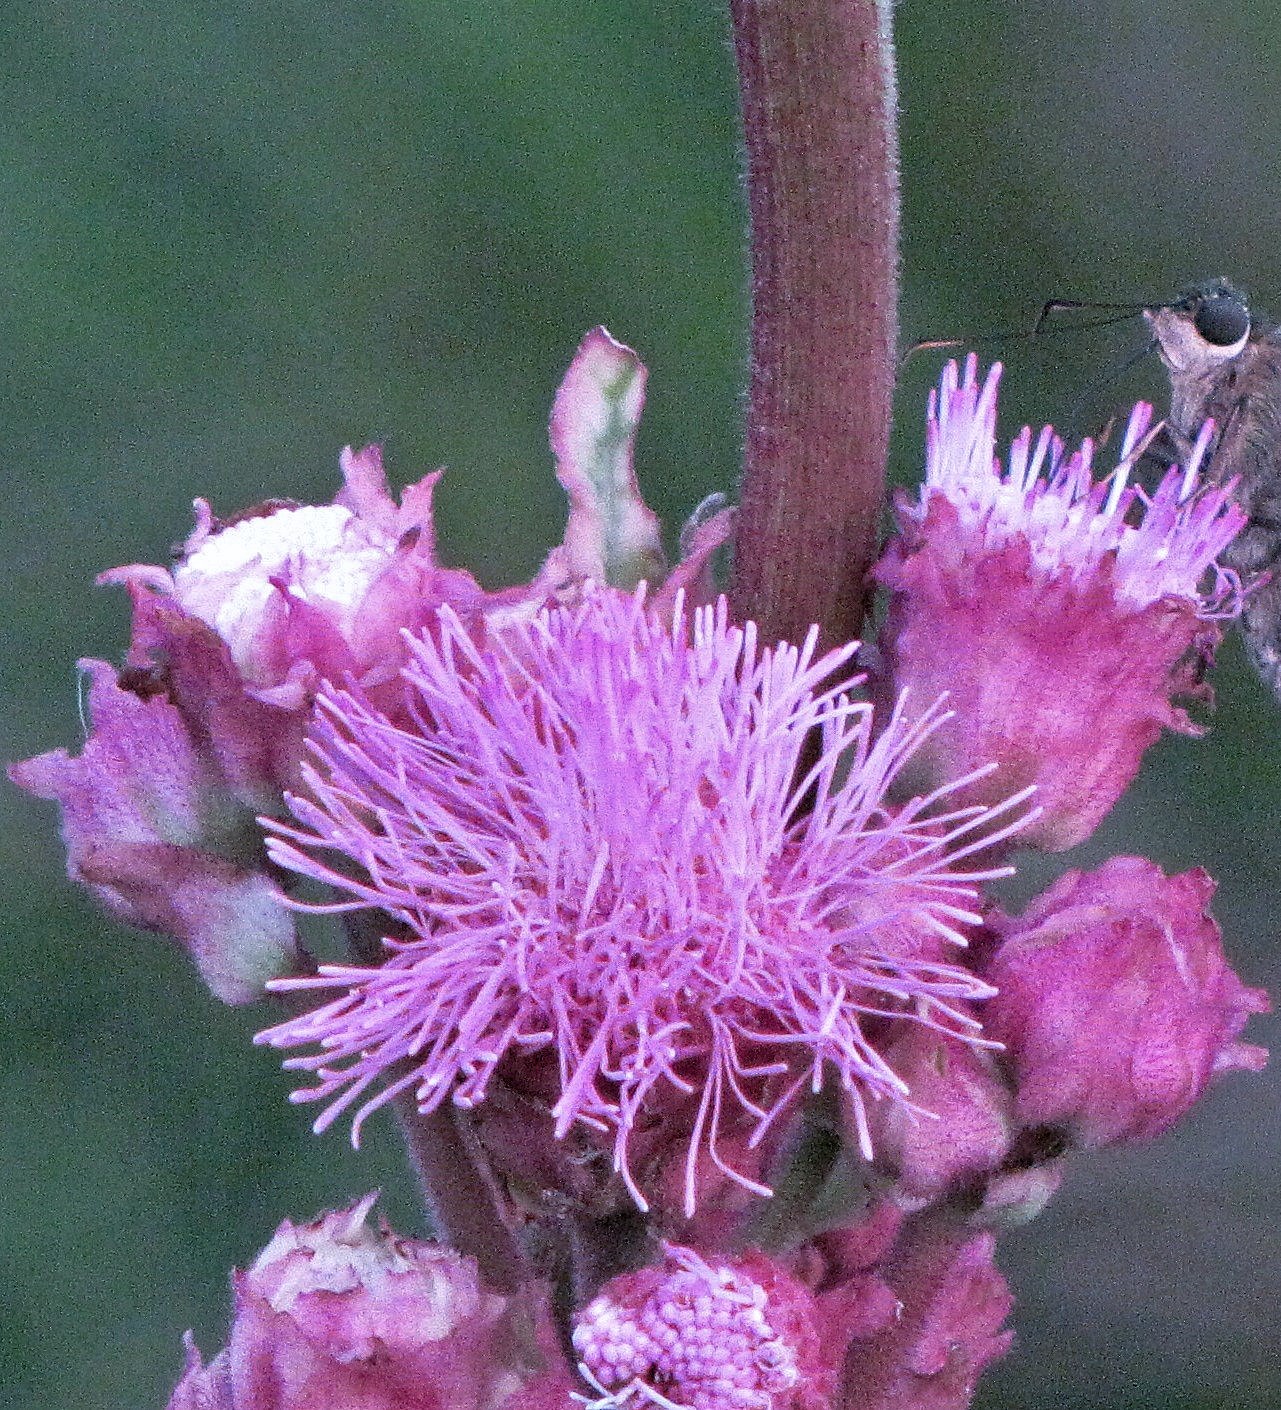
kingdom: Plantae
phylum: Tracheophyta
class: Magnoliopsida
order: Asterales
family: Asteraceae
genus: Campuloclinium
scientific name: Campuloclinium macrocephalum
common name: Pompomweed
